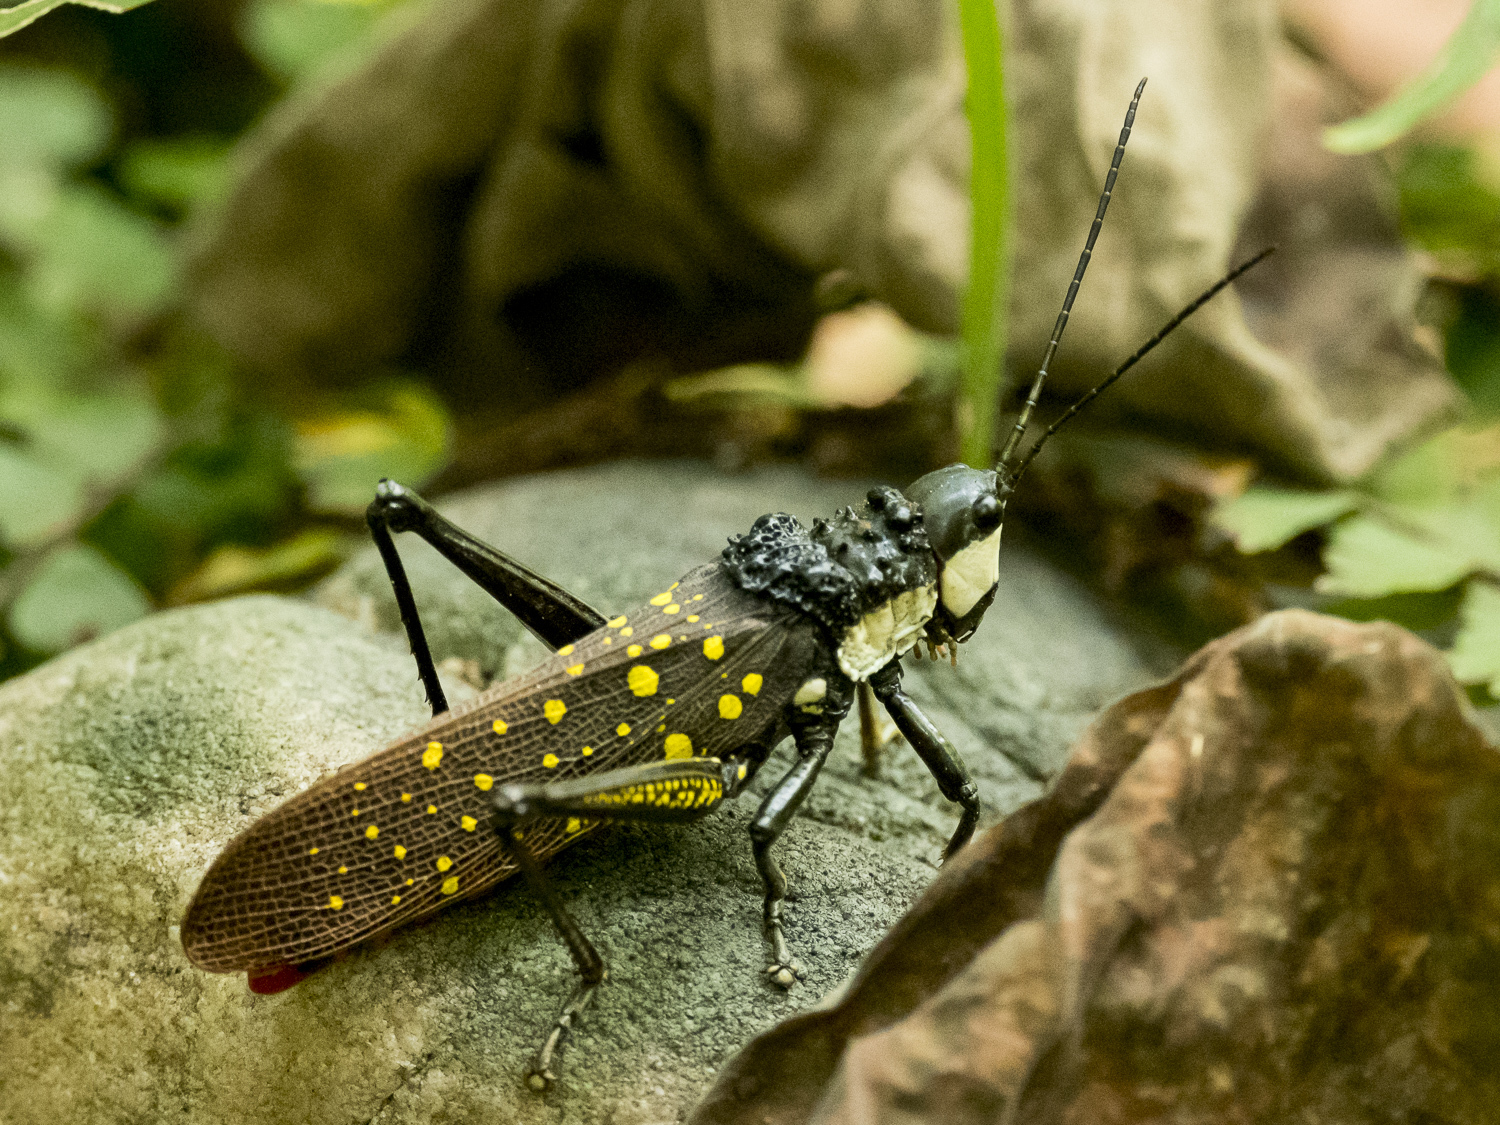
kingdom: Animalia
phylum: Arthropoda
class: Insecta
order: Orthoptera
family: Pyrgomorphidae
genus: Aularches
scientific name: Aularches miliaris
